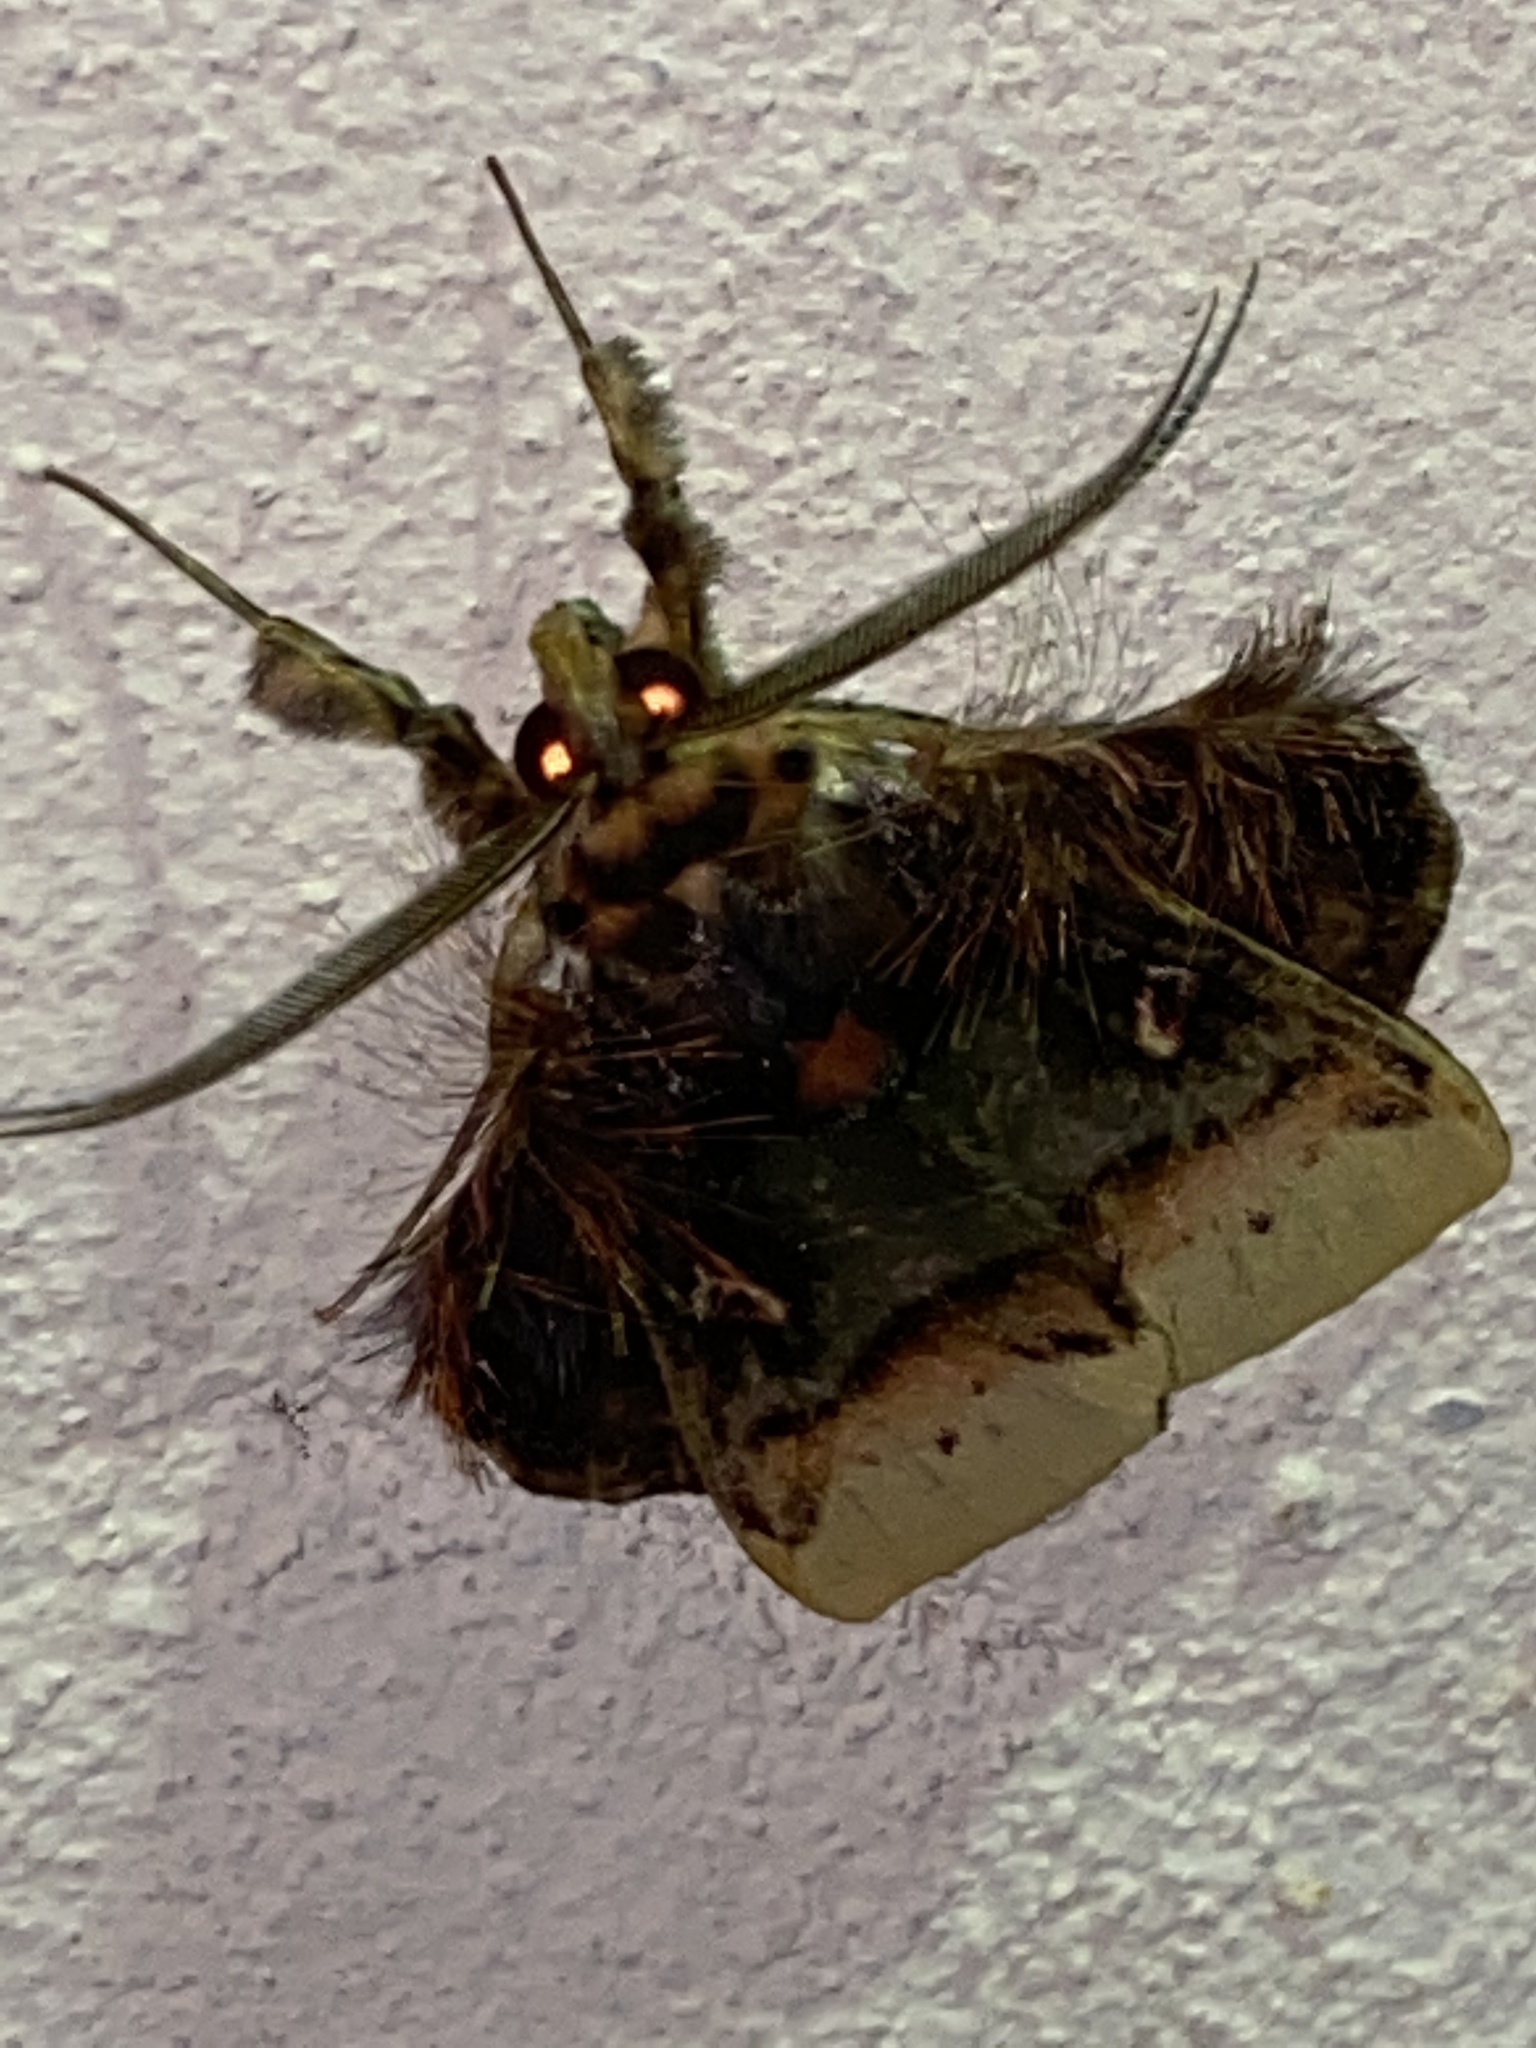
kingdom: Animalia
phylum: Arthropoda
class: Insecta
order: Lepidoptera
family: Erebidae
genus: Ceroctena
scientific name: Ceroctena amynta
